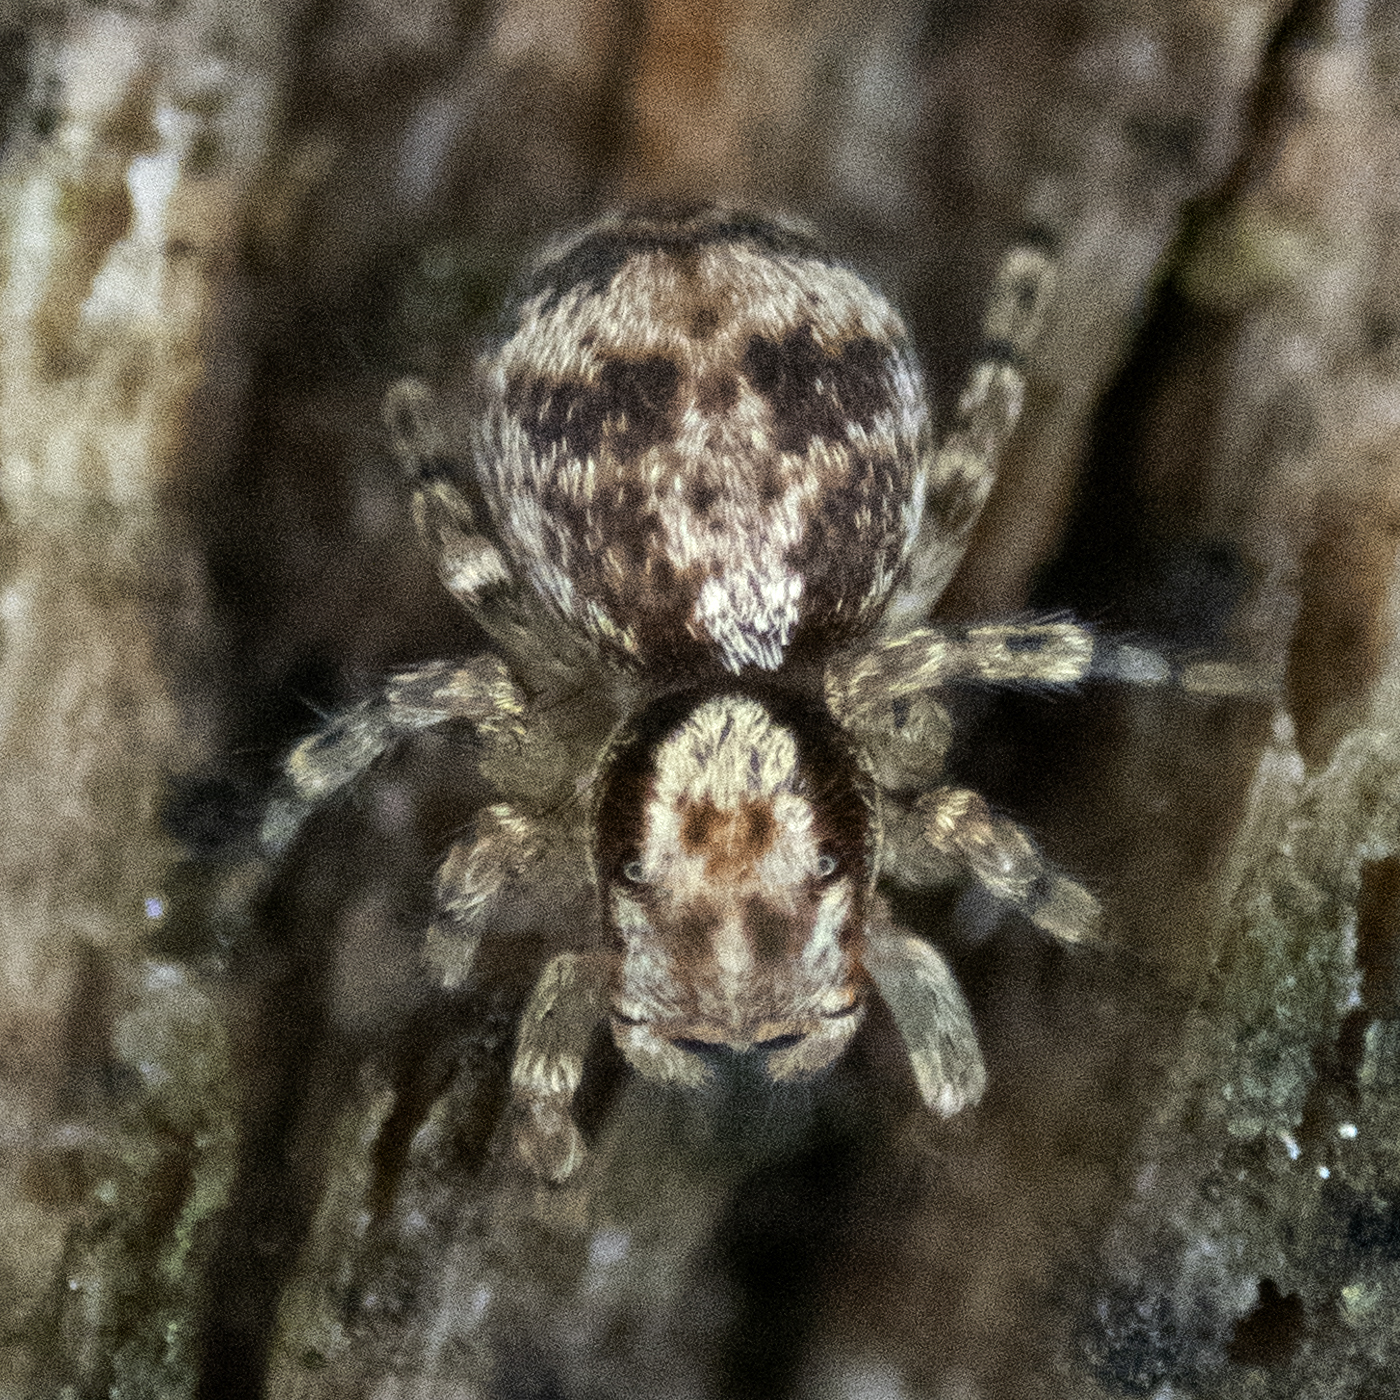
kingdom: Animalia
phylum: Arthropoda
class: Arachnida
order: Araneae
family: Salticidae
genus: Naphrys
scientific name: Naphrys pulex
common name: Flea jumping spider
